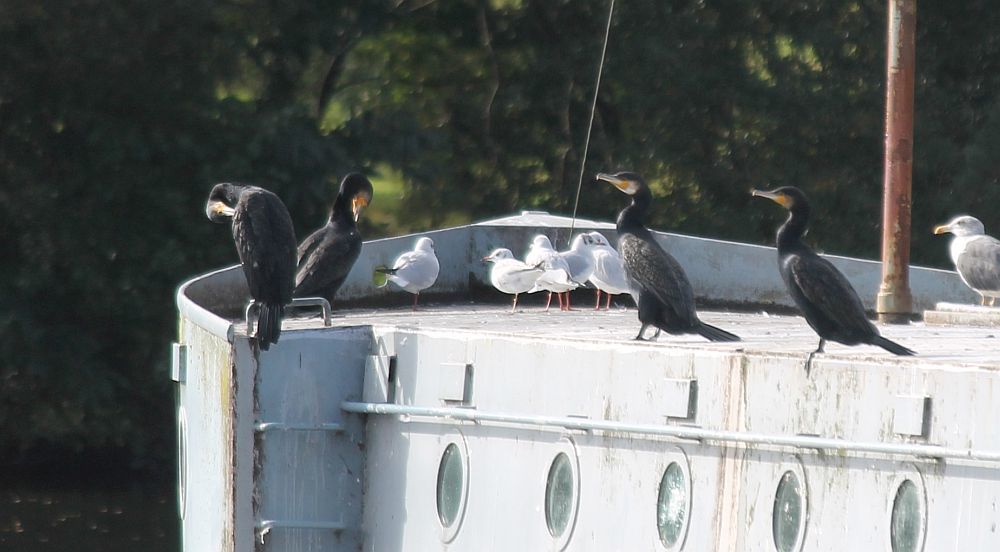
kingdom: Animalia
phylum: Chordata
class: Aves
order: Suliformes
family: Phalacrocoracidae
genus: Phalacrocorax
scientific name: Phalacrocorax carbo
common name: Great cormorant
